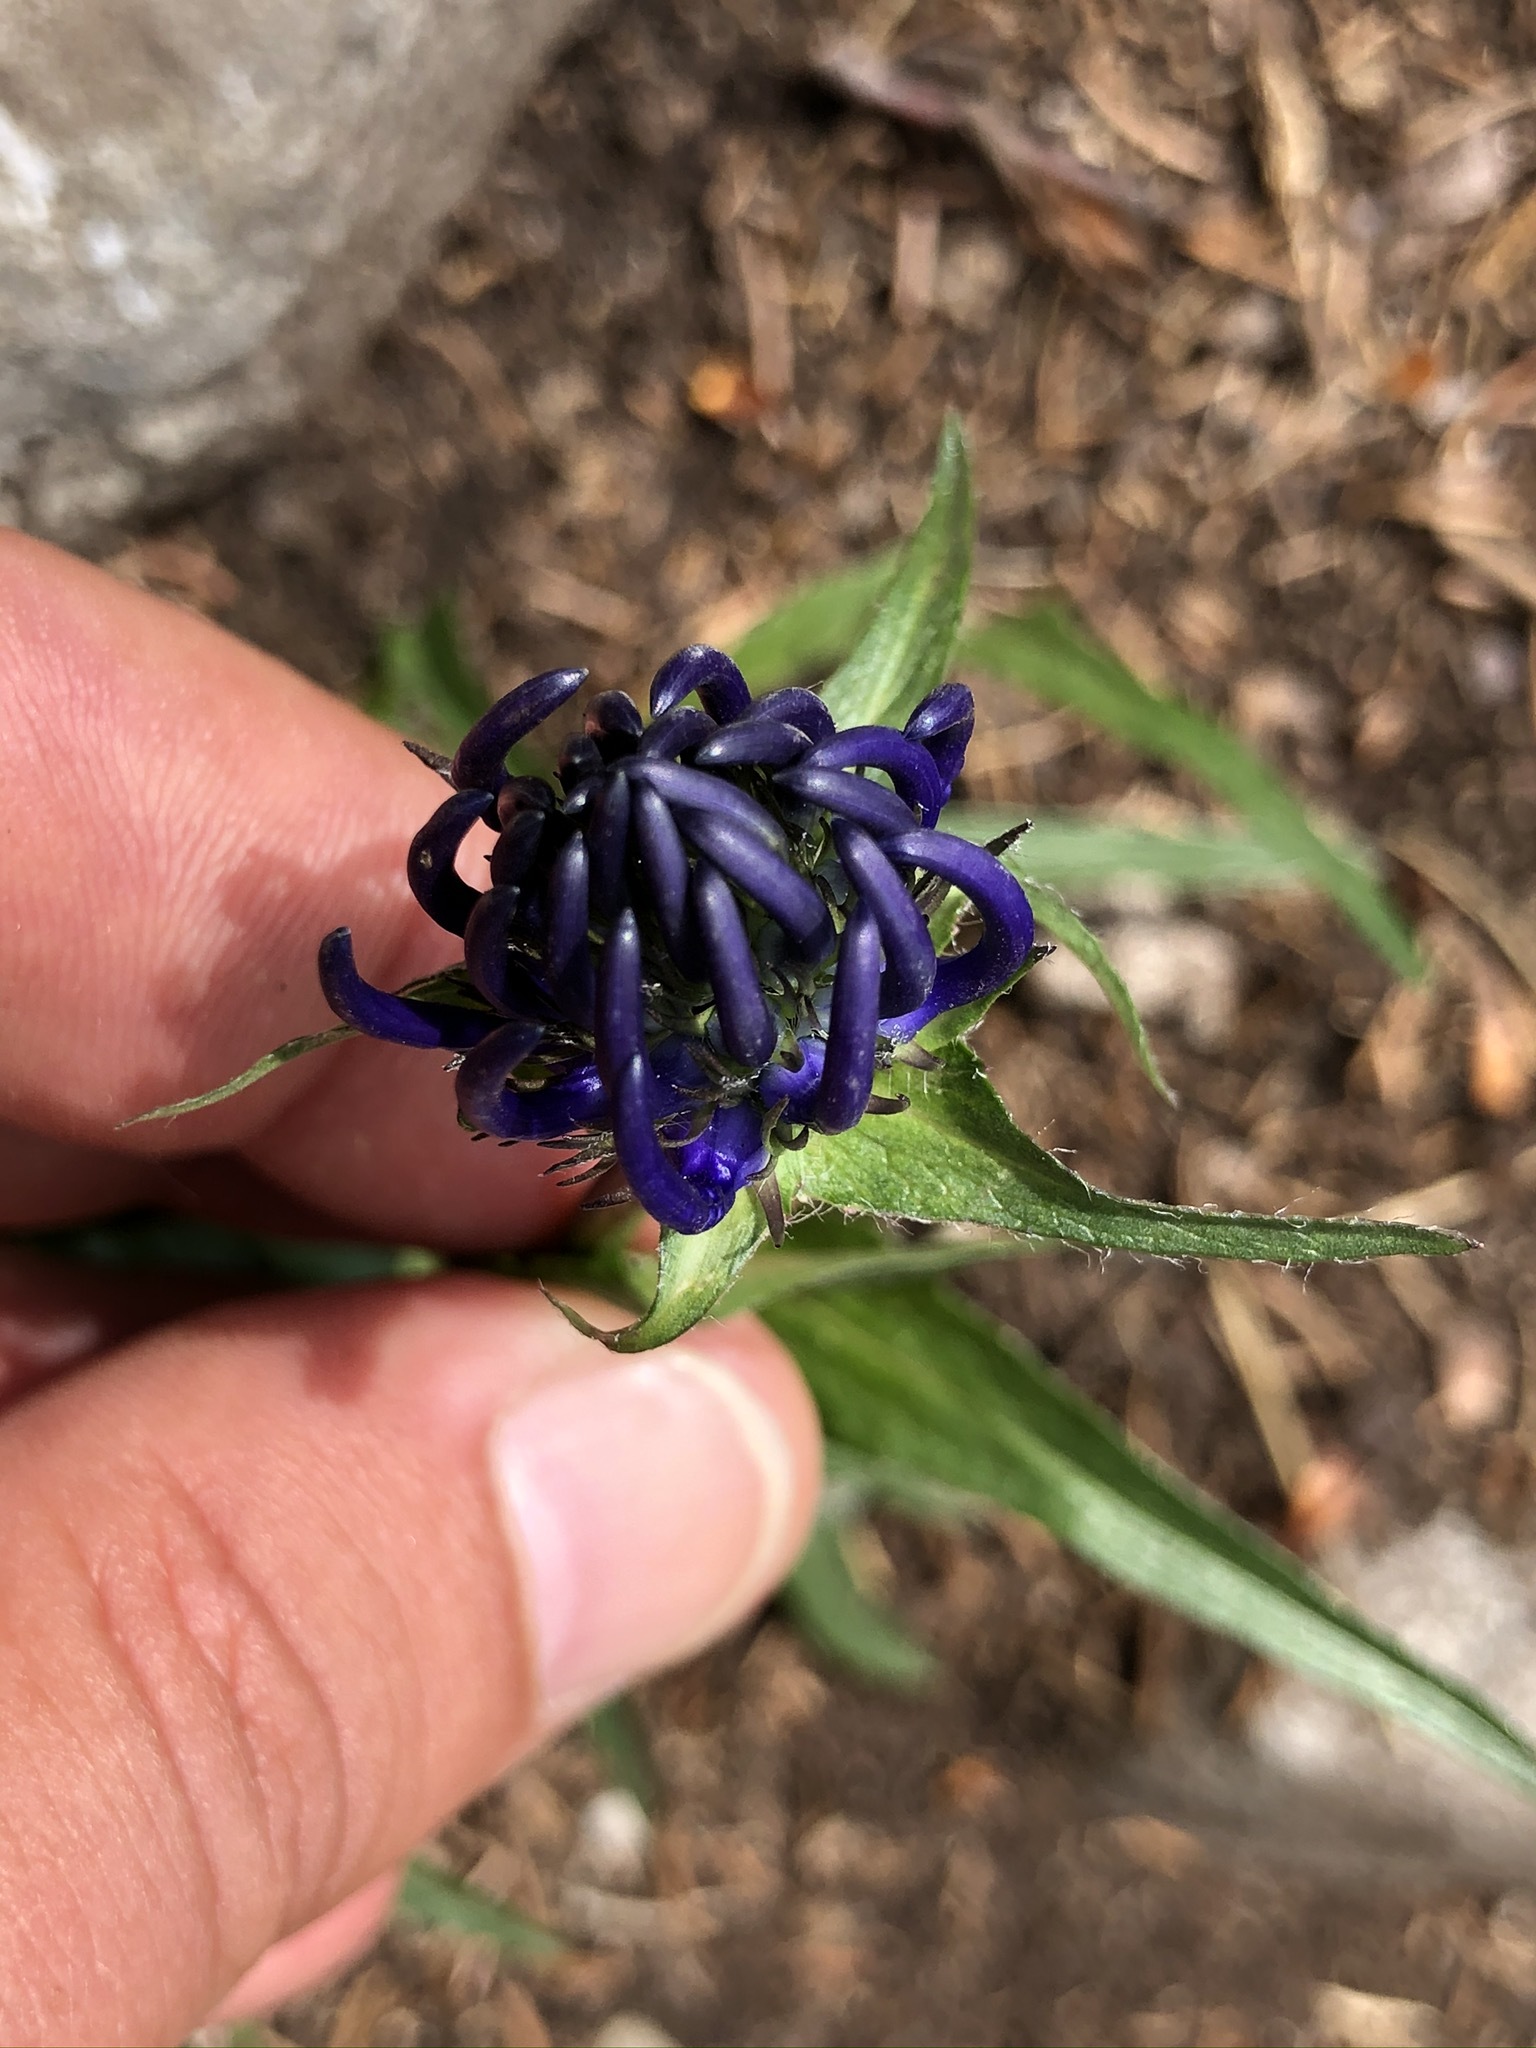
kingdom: Plantae
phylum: Tracheophyta
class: Magnoliopsida
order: Asterales
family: Campanulaceae
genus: Phyteuma
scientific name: Phyteuma orbiculare
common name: Round-headed rampion
